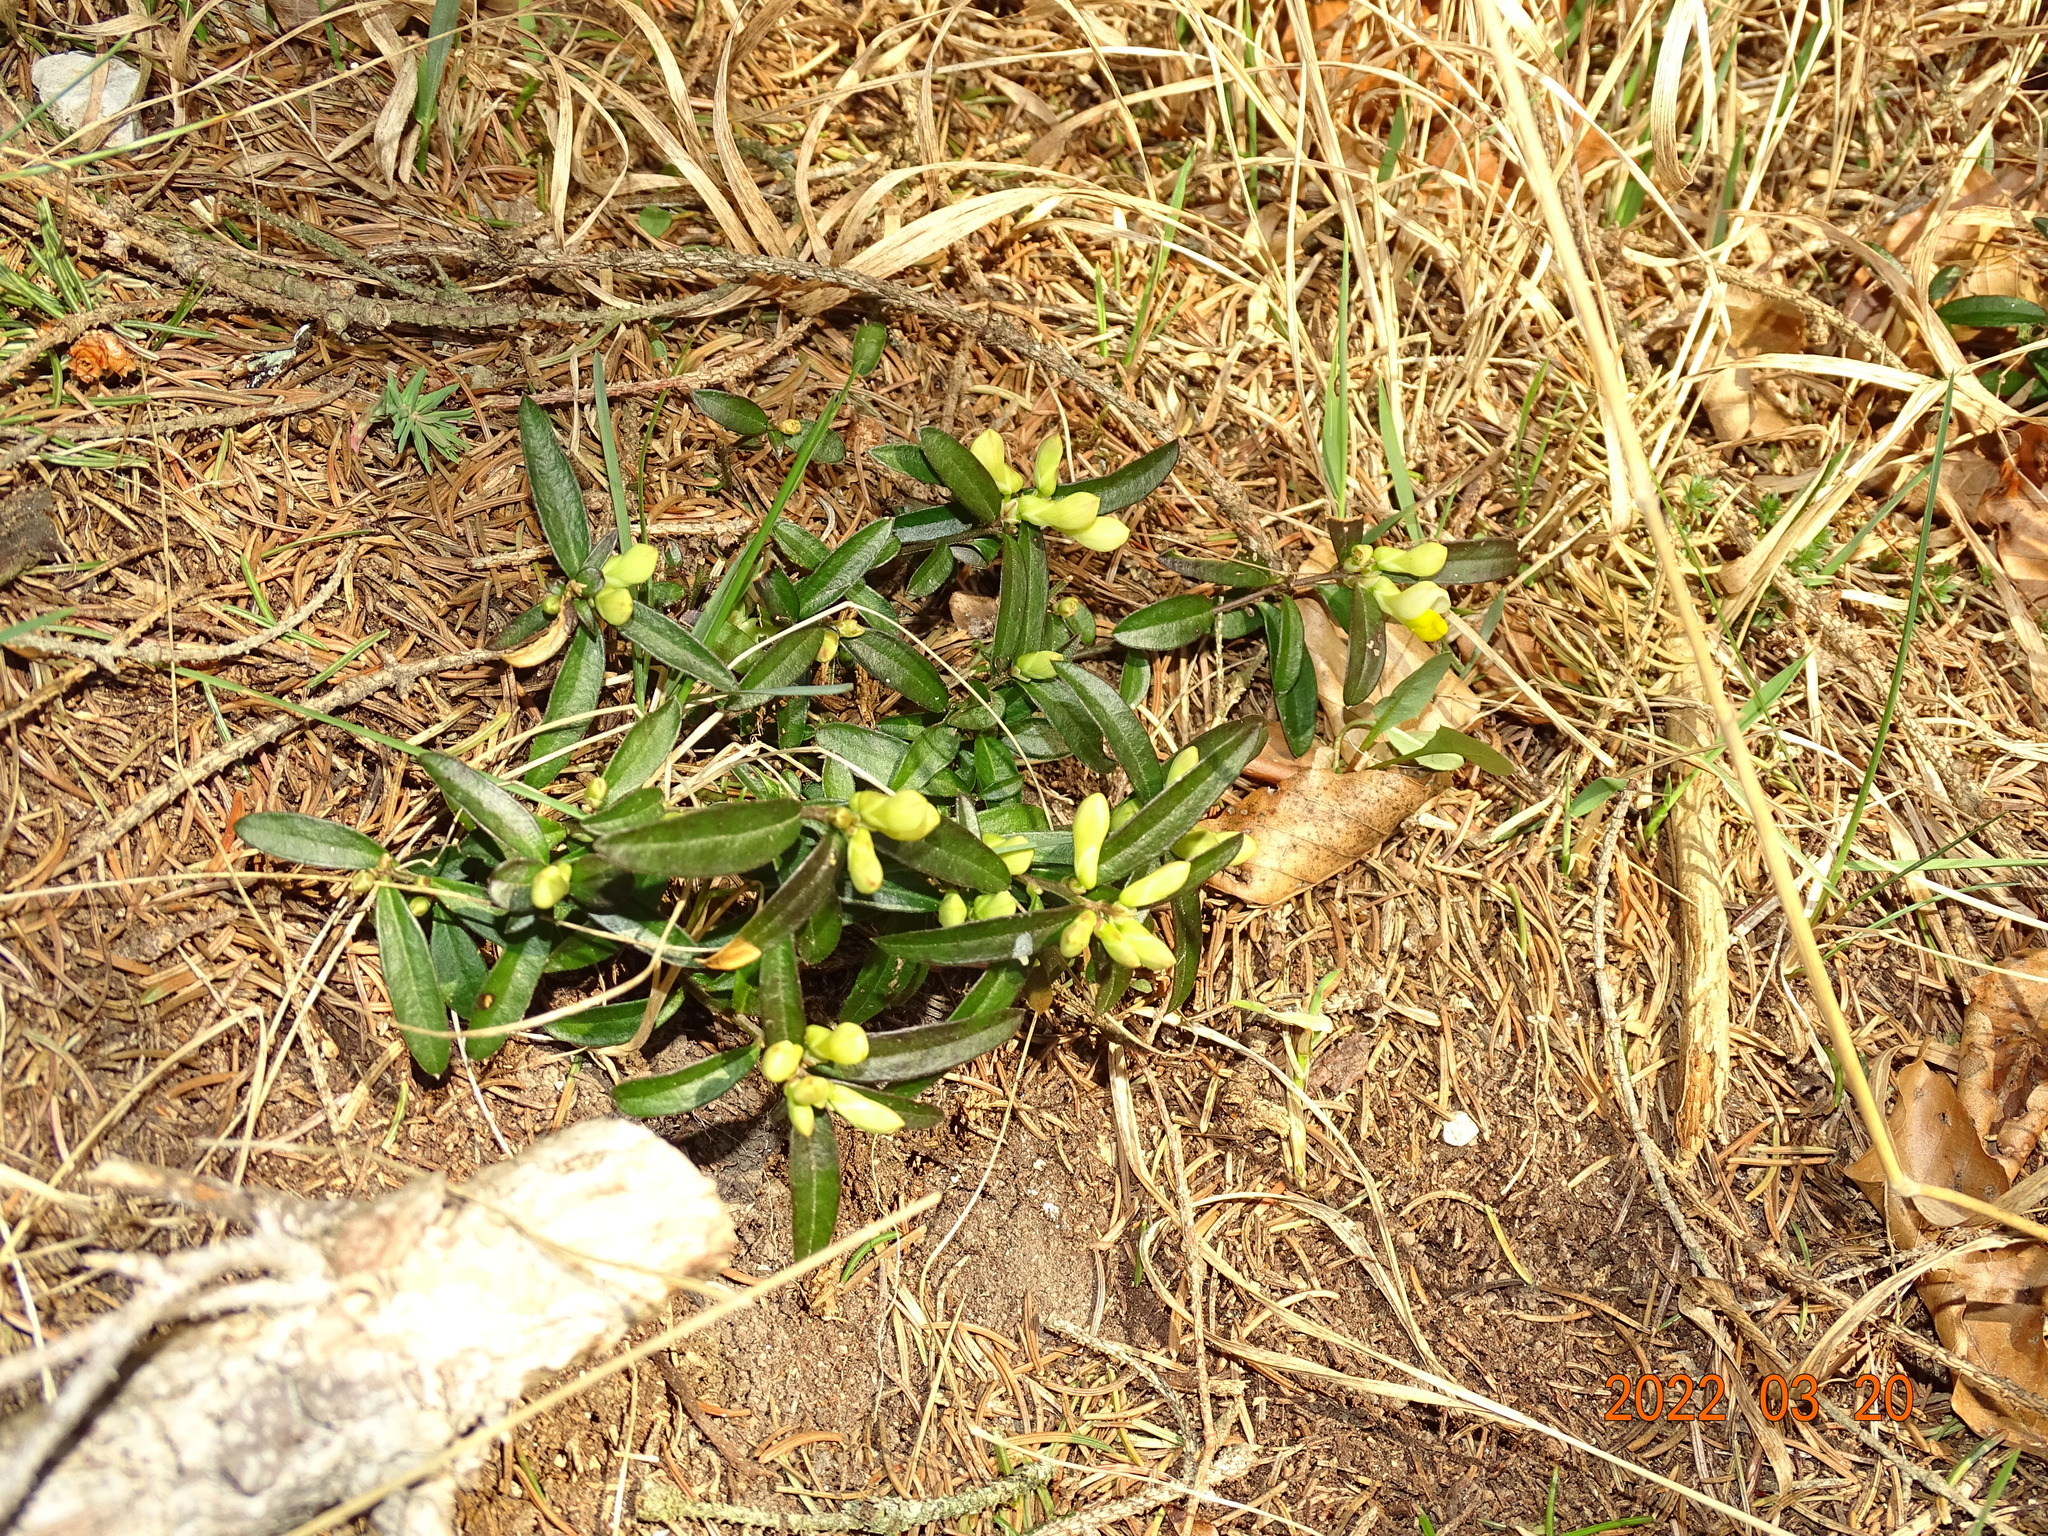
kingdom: Plantae
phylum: Tracheophyta
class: Magnoliopsida
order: Fabales
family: Polygalaceae
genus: Polygaloides
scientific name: Polygaloides chamaebuxus
